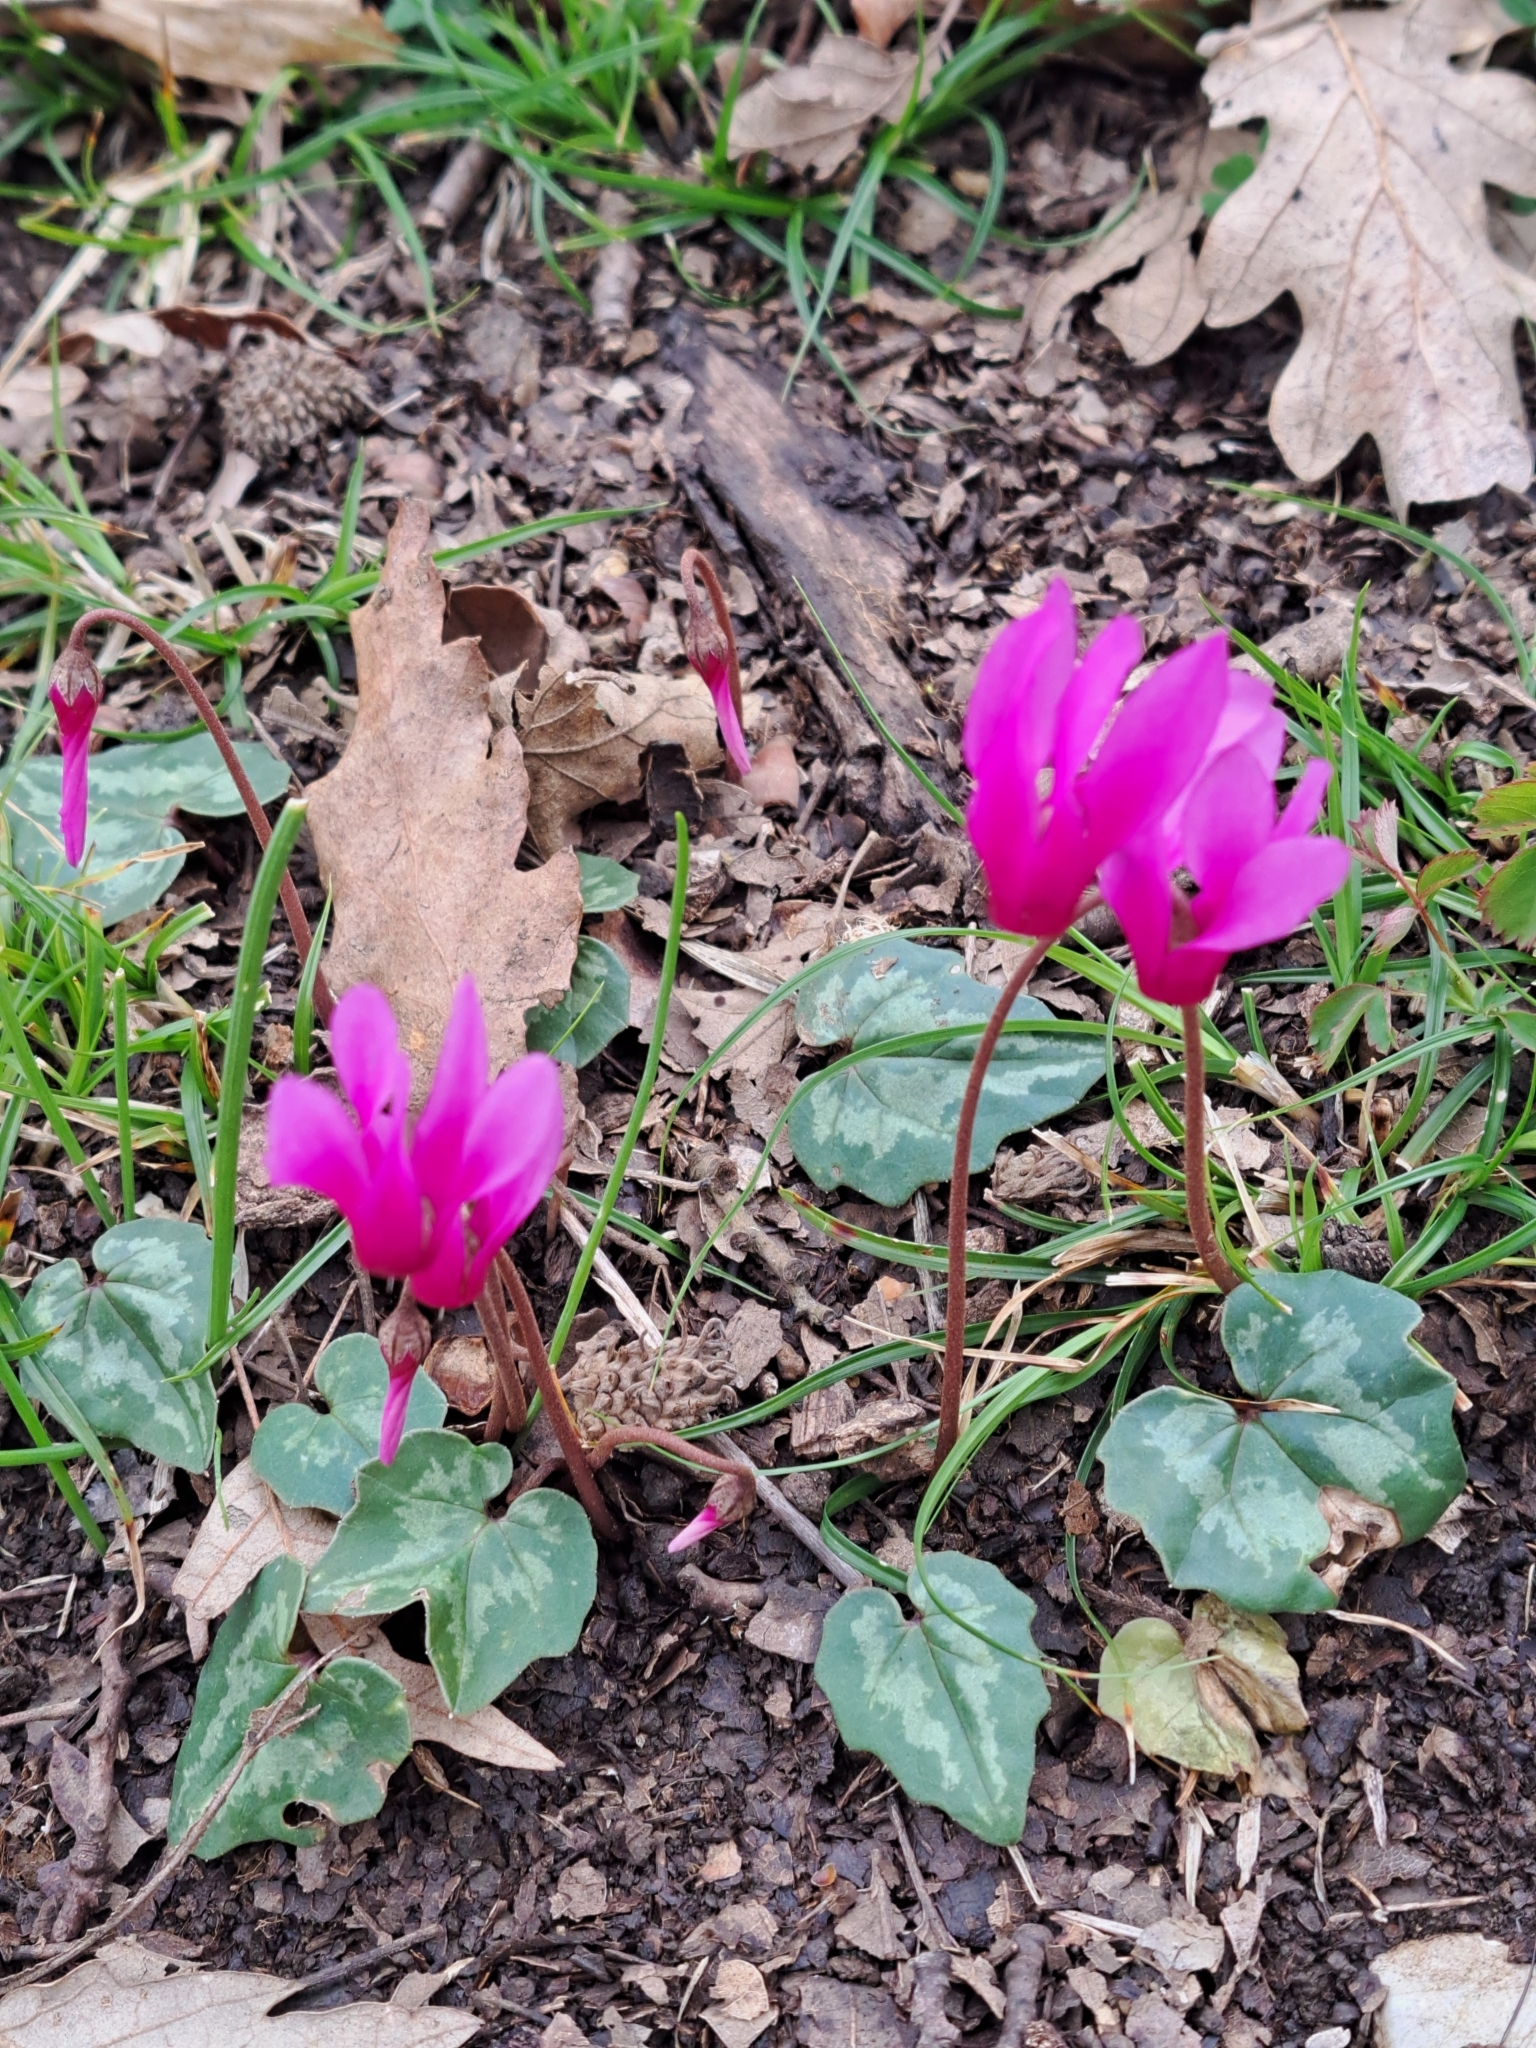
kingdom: Plantae
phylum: Tracheophyta
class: Magnoliopsida
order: Ericales
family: Primulaceae
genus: Cyclamen
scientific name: Cyclamen repandum
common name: Spring sowbread
